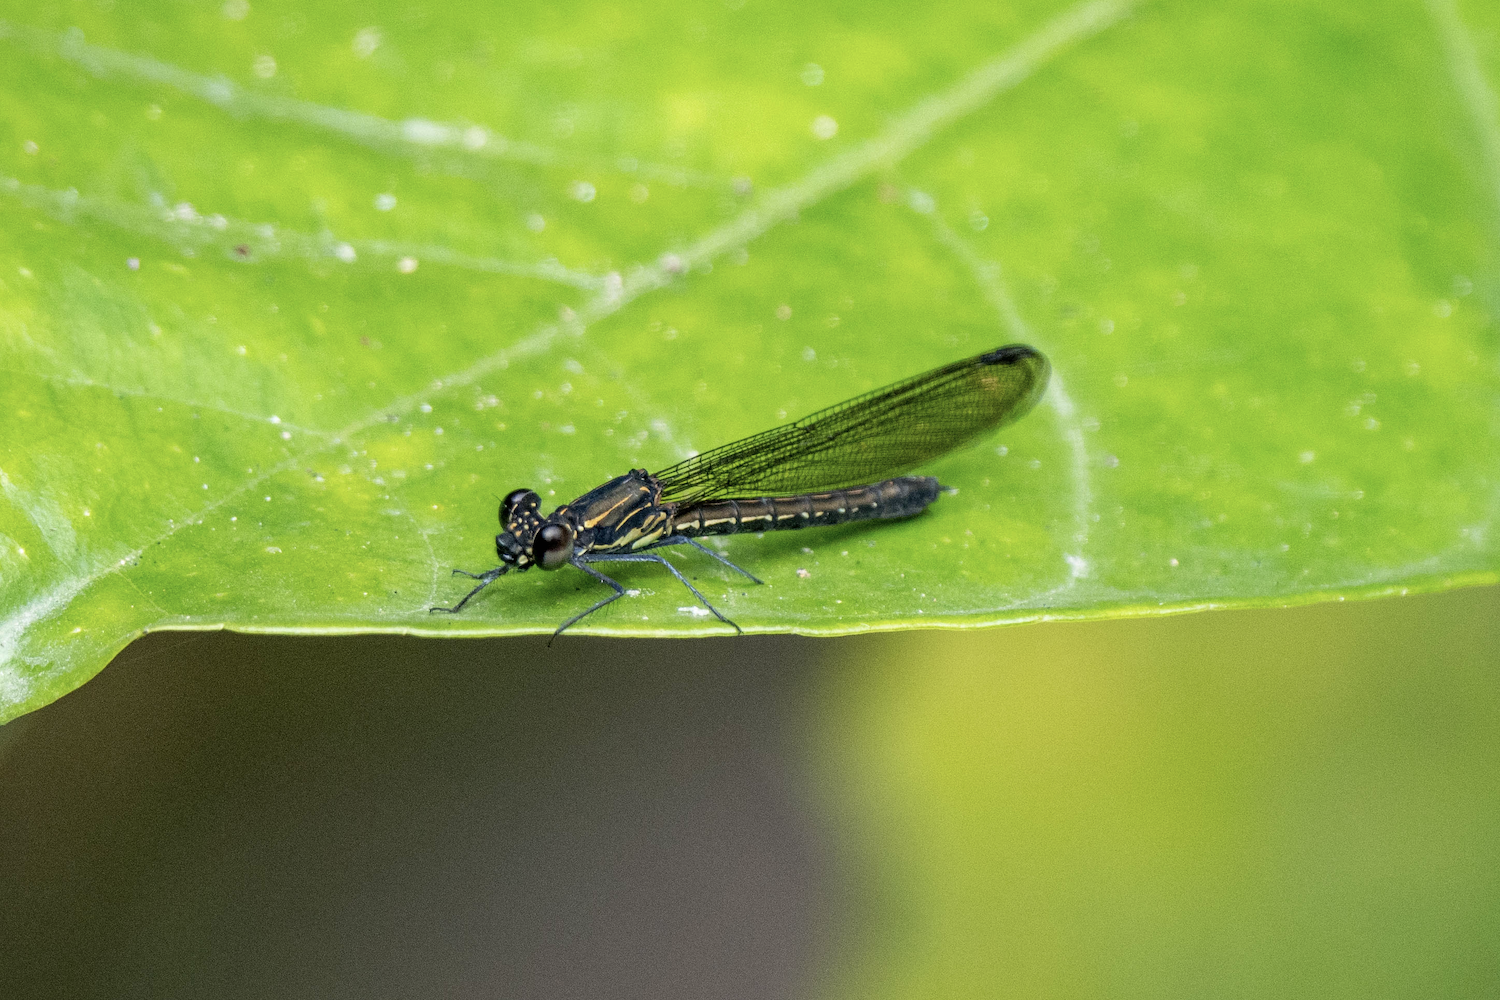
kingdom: Animalia
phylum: Arthropoda
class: Insecta
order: Odonata
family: Chlorocyphidae
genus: Heliocypha
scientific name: Heliocypha perforata
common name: Common blue jewel
